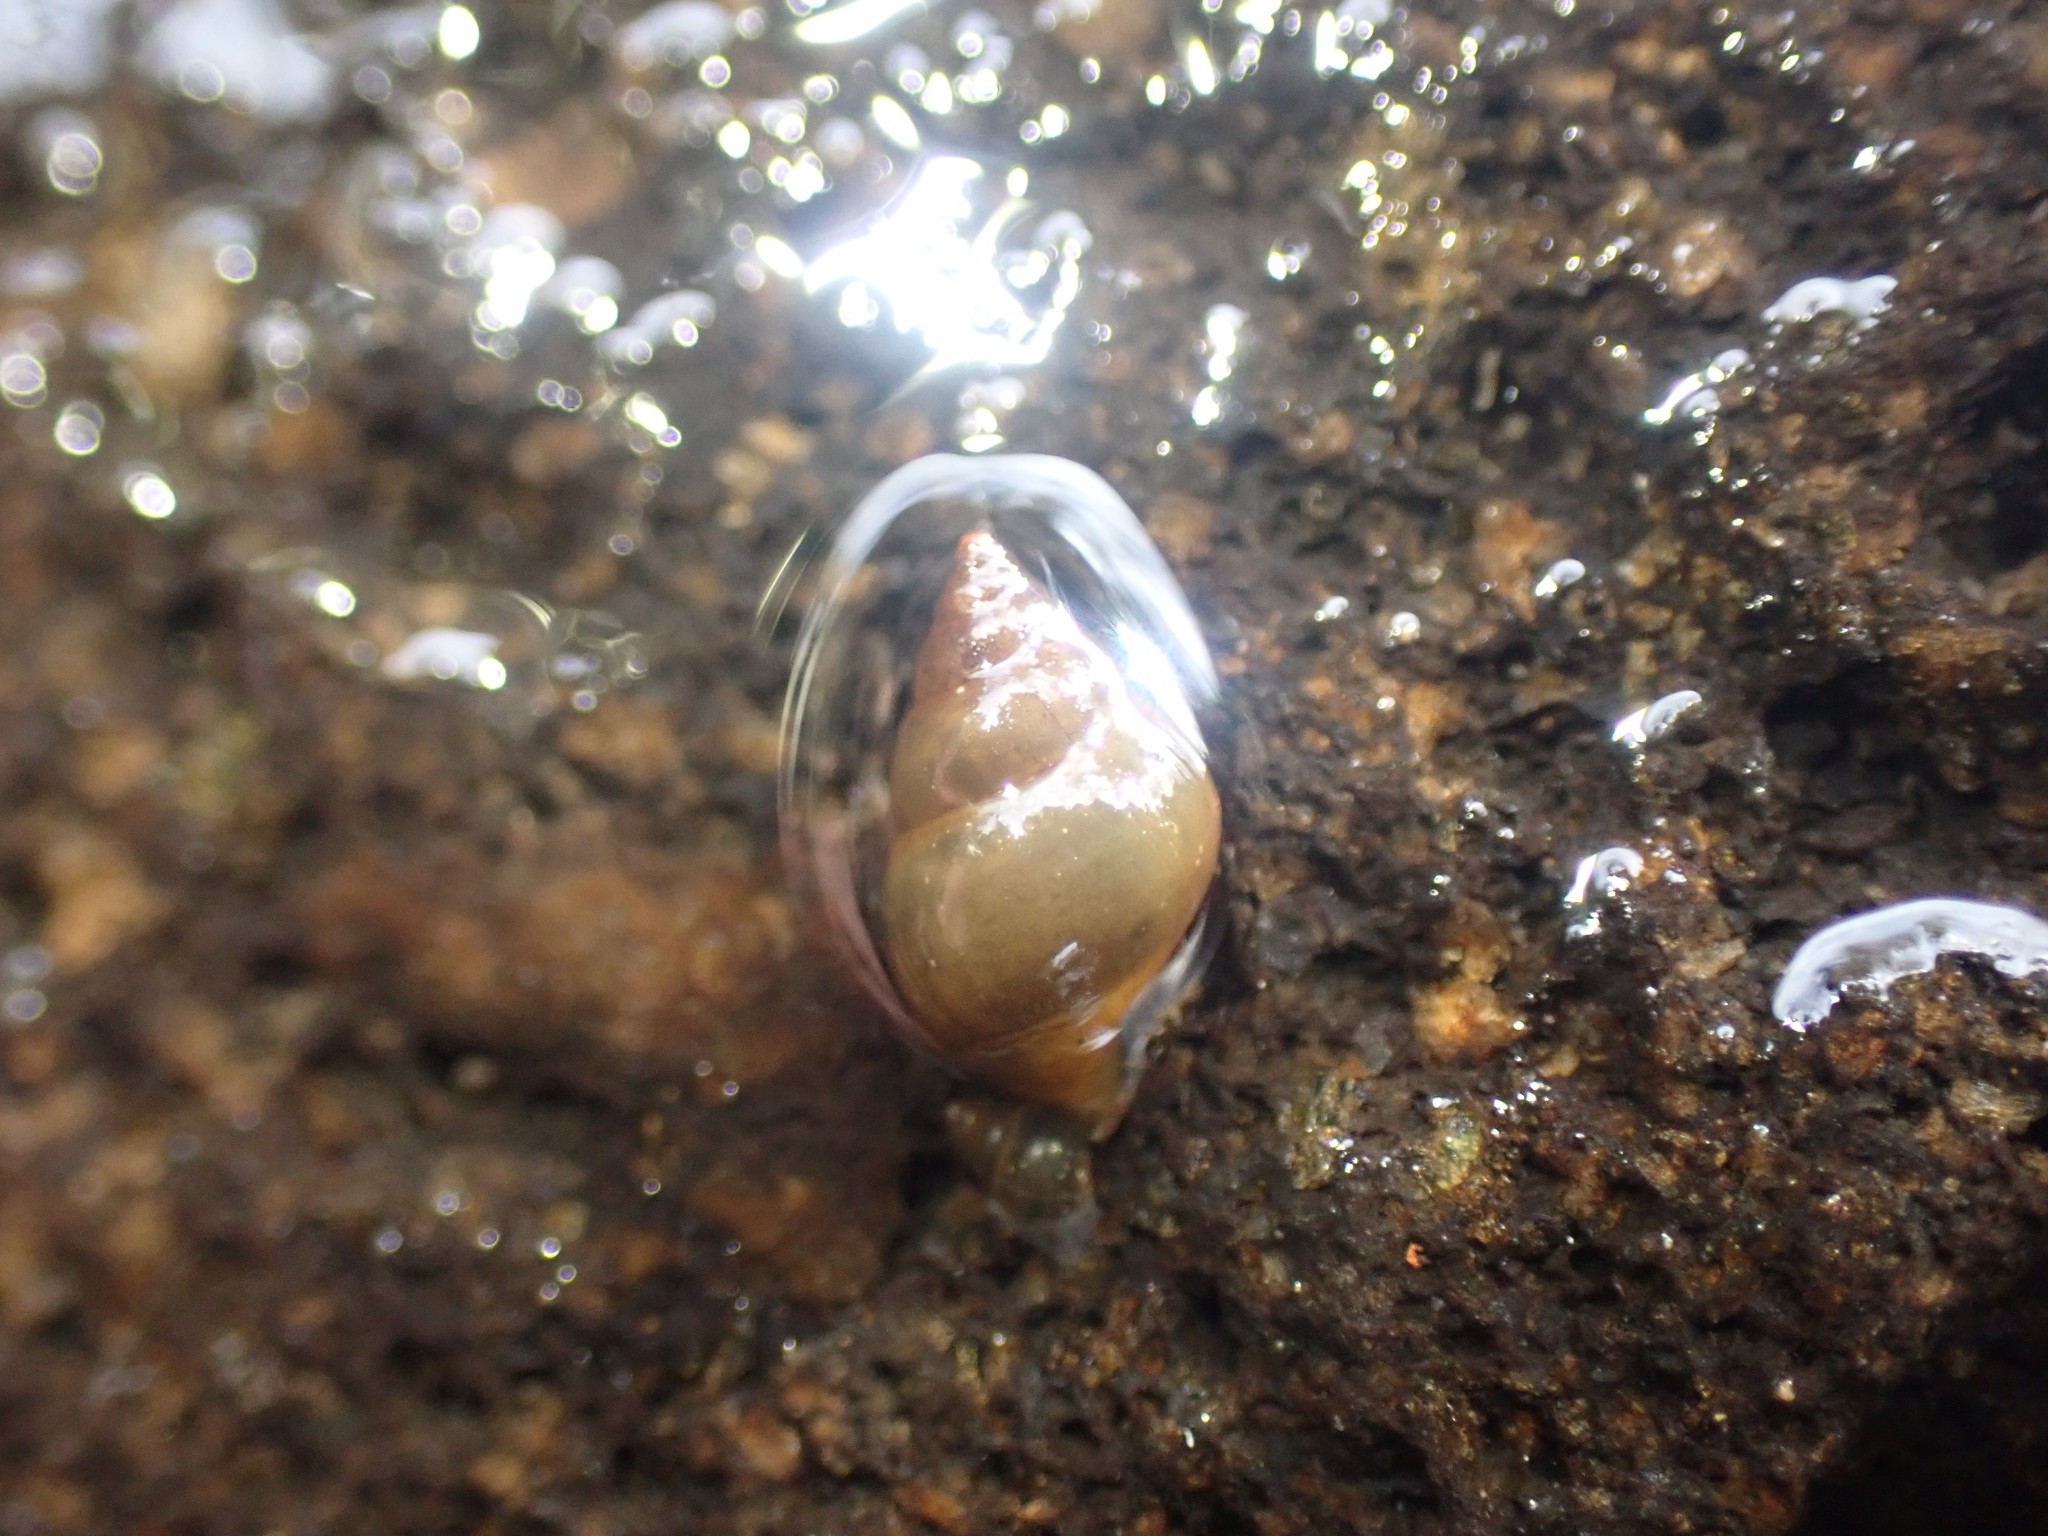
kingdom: Animalia
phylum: Mollusca
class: Gastropoda
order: Littorinimorpha
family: Tateidae
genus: Potamopyrgus
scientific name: Potamopyrgus antipodarum
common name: Jenkins' spire snail
